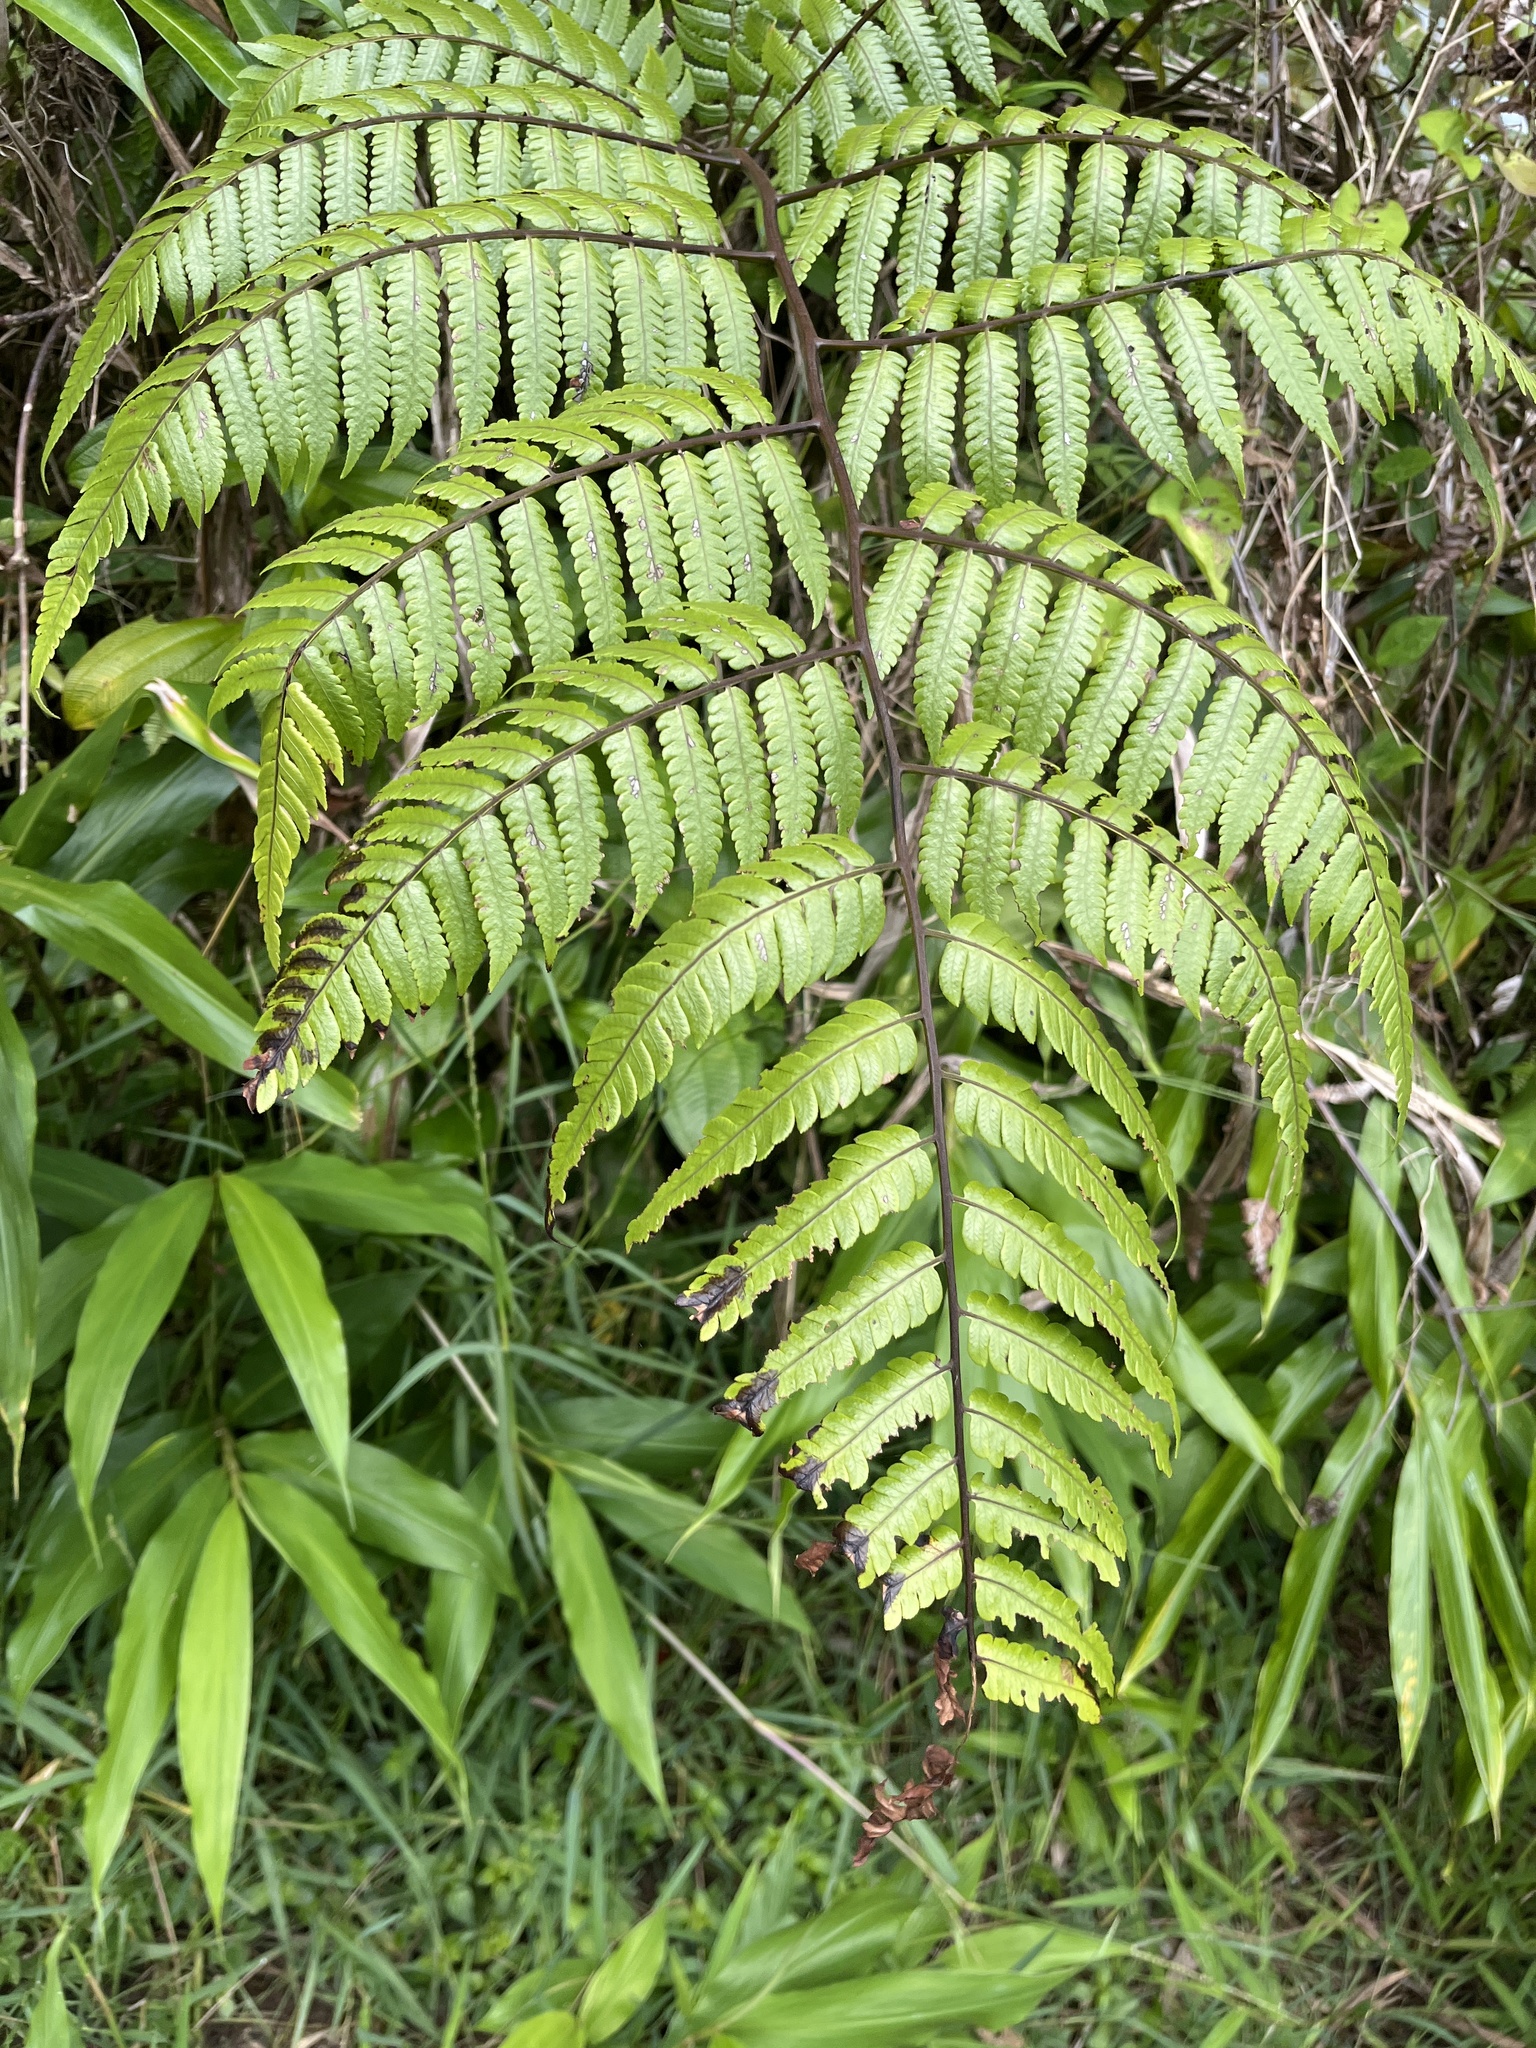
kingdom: Plantae
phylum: Tracheophyta
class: Polypodiopsida
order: Cyatheales
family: Cyatheaceae
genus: Cyathea
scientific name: Cyathea borinquena
